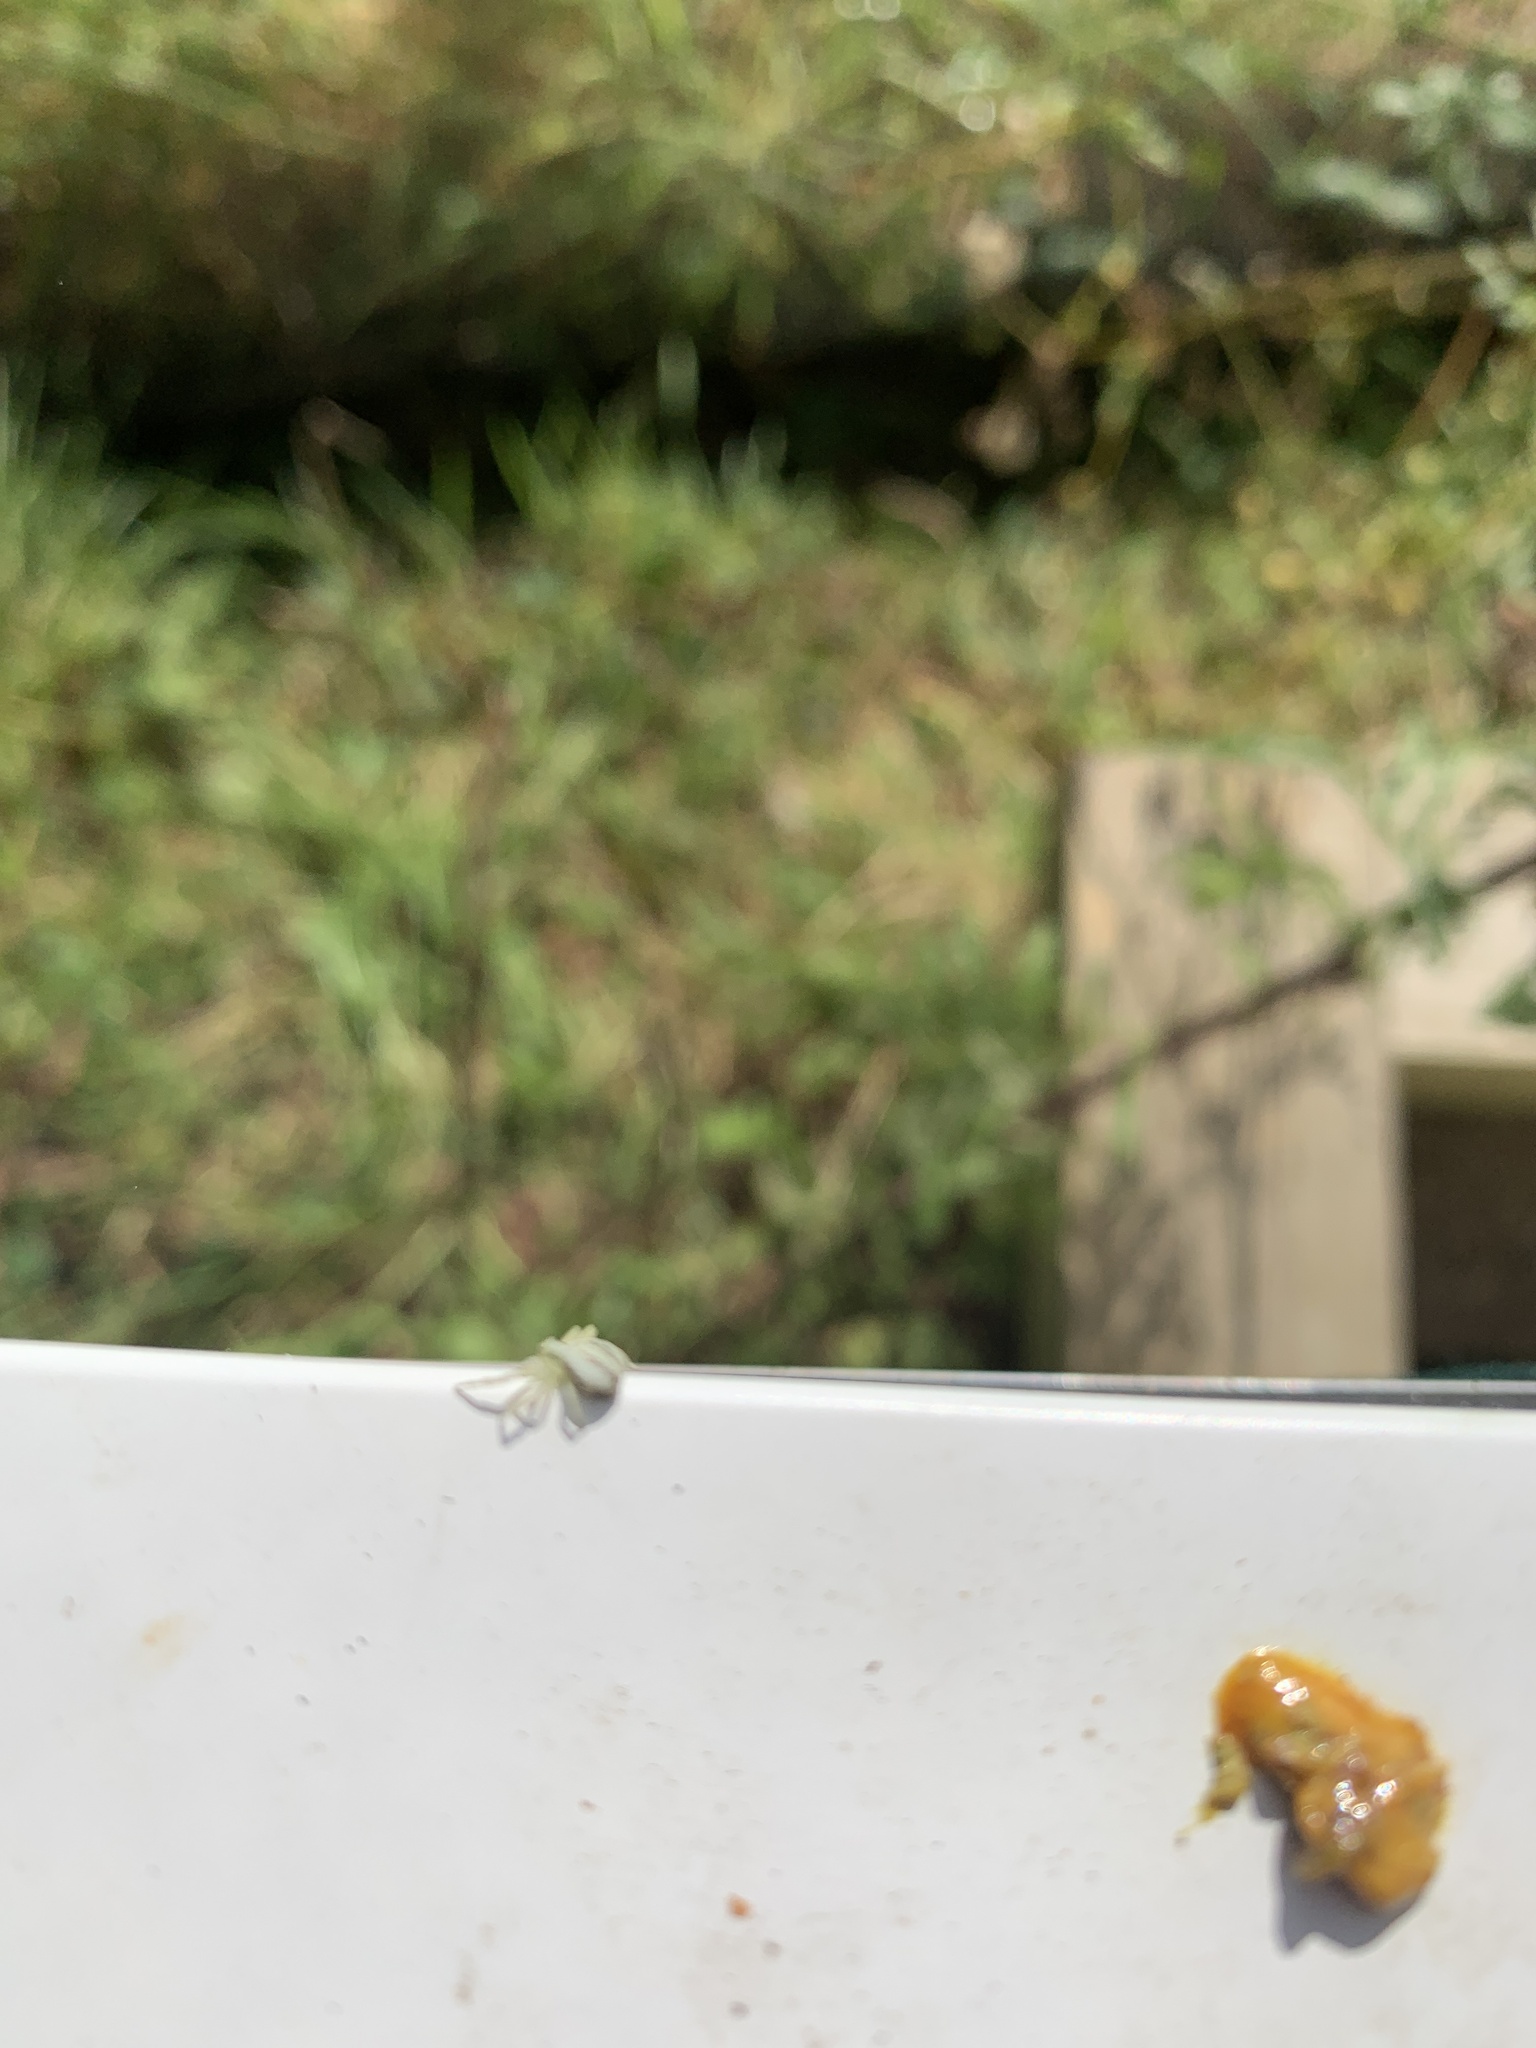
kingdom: Animalia
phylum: Arthropoda
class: Arachnida
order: Araneae
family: Thomisidae
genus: Misumena
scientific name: Misumena vatia
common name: Goldenrod crab spider
